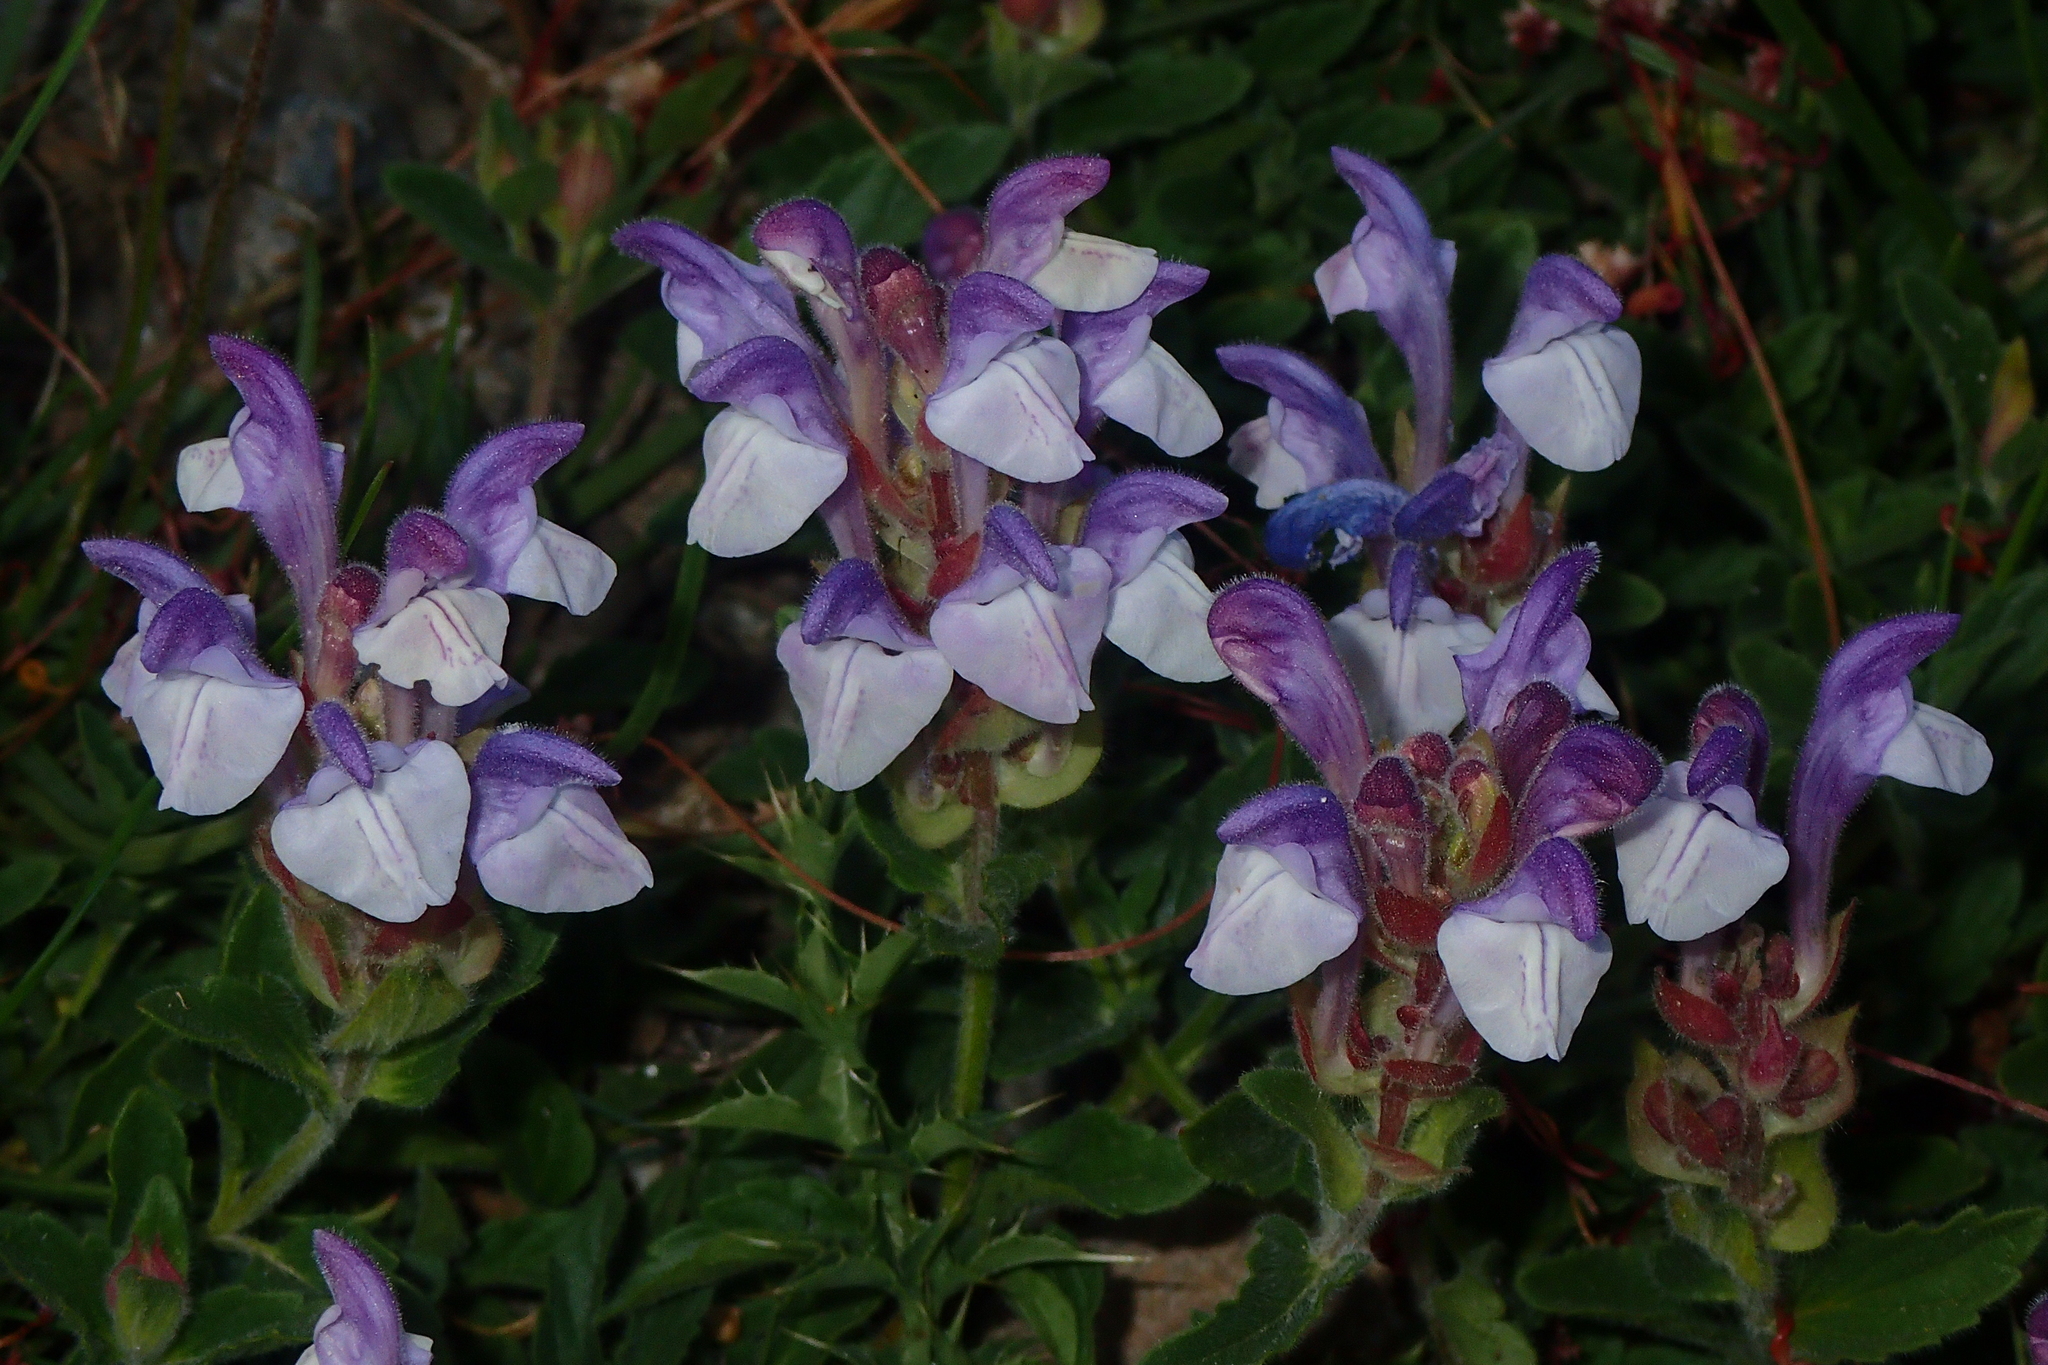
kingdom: Plantae
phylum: Tracheophyta
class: Magnoliopsida
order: Lamiales
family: Lamiaceae
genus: Scutellaria
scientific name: Scutellaria alpina
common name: Alpine scullcap
